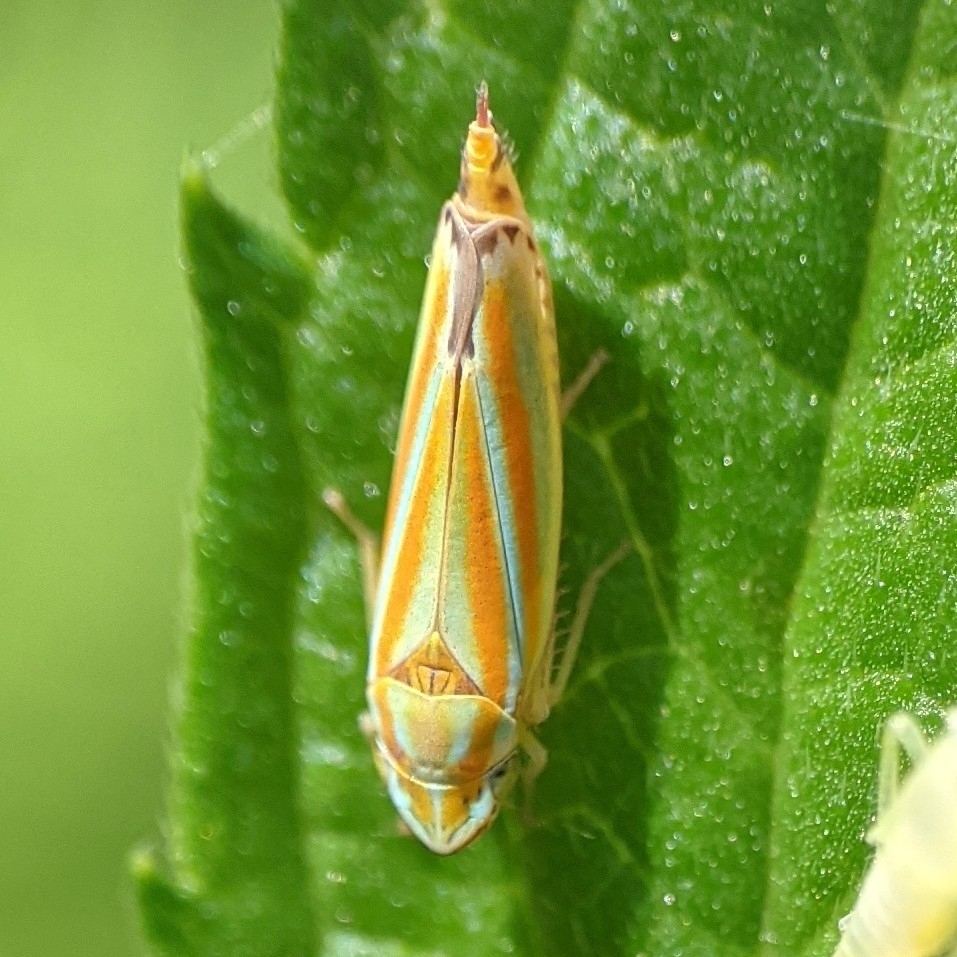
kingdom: Animalia
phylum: Arthropoda
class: Insecta
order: Hemiptera
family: Cicadellidae
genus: Graphocephala
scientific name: Graphocephala versuta
